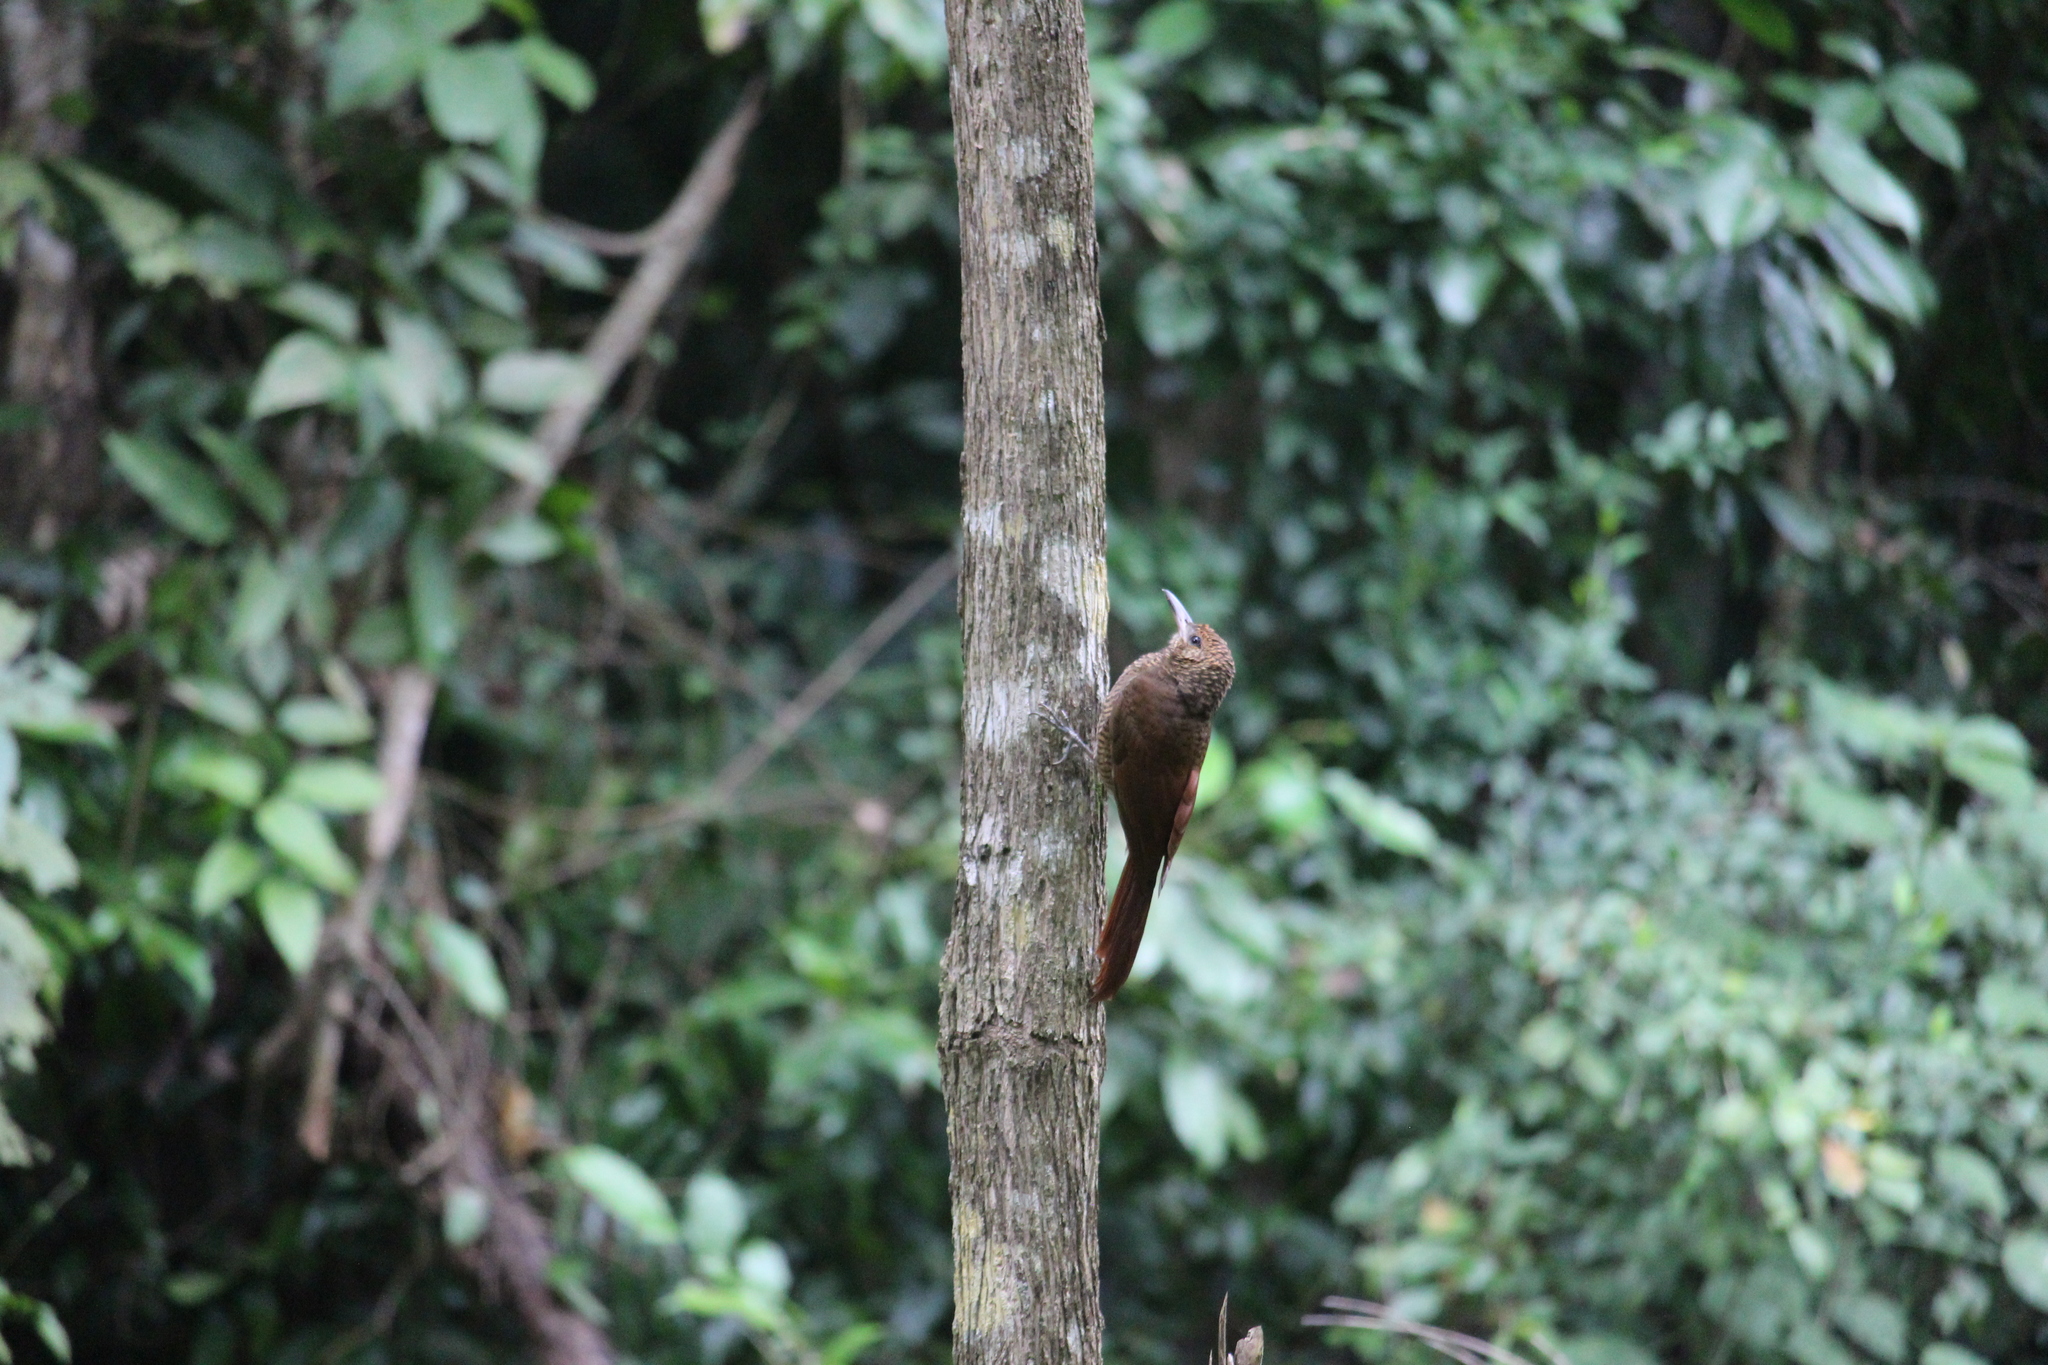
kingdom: Animalia
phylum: Chordata
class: Aves
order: Passeriformes
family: Furnariidae
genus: Dendrocolaptes
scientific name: Dendrocolaptes sanctithomae
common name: Northern barred-woodcreeper
